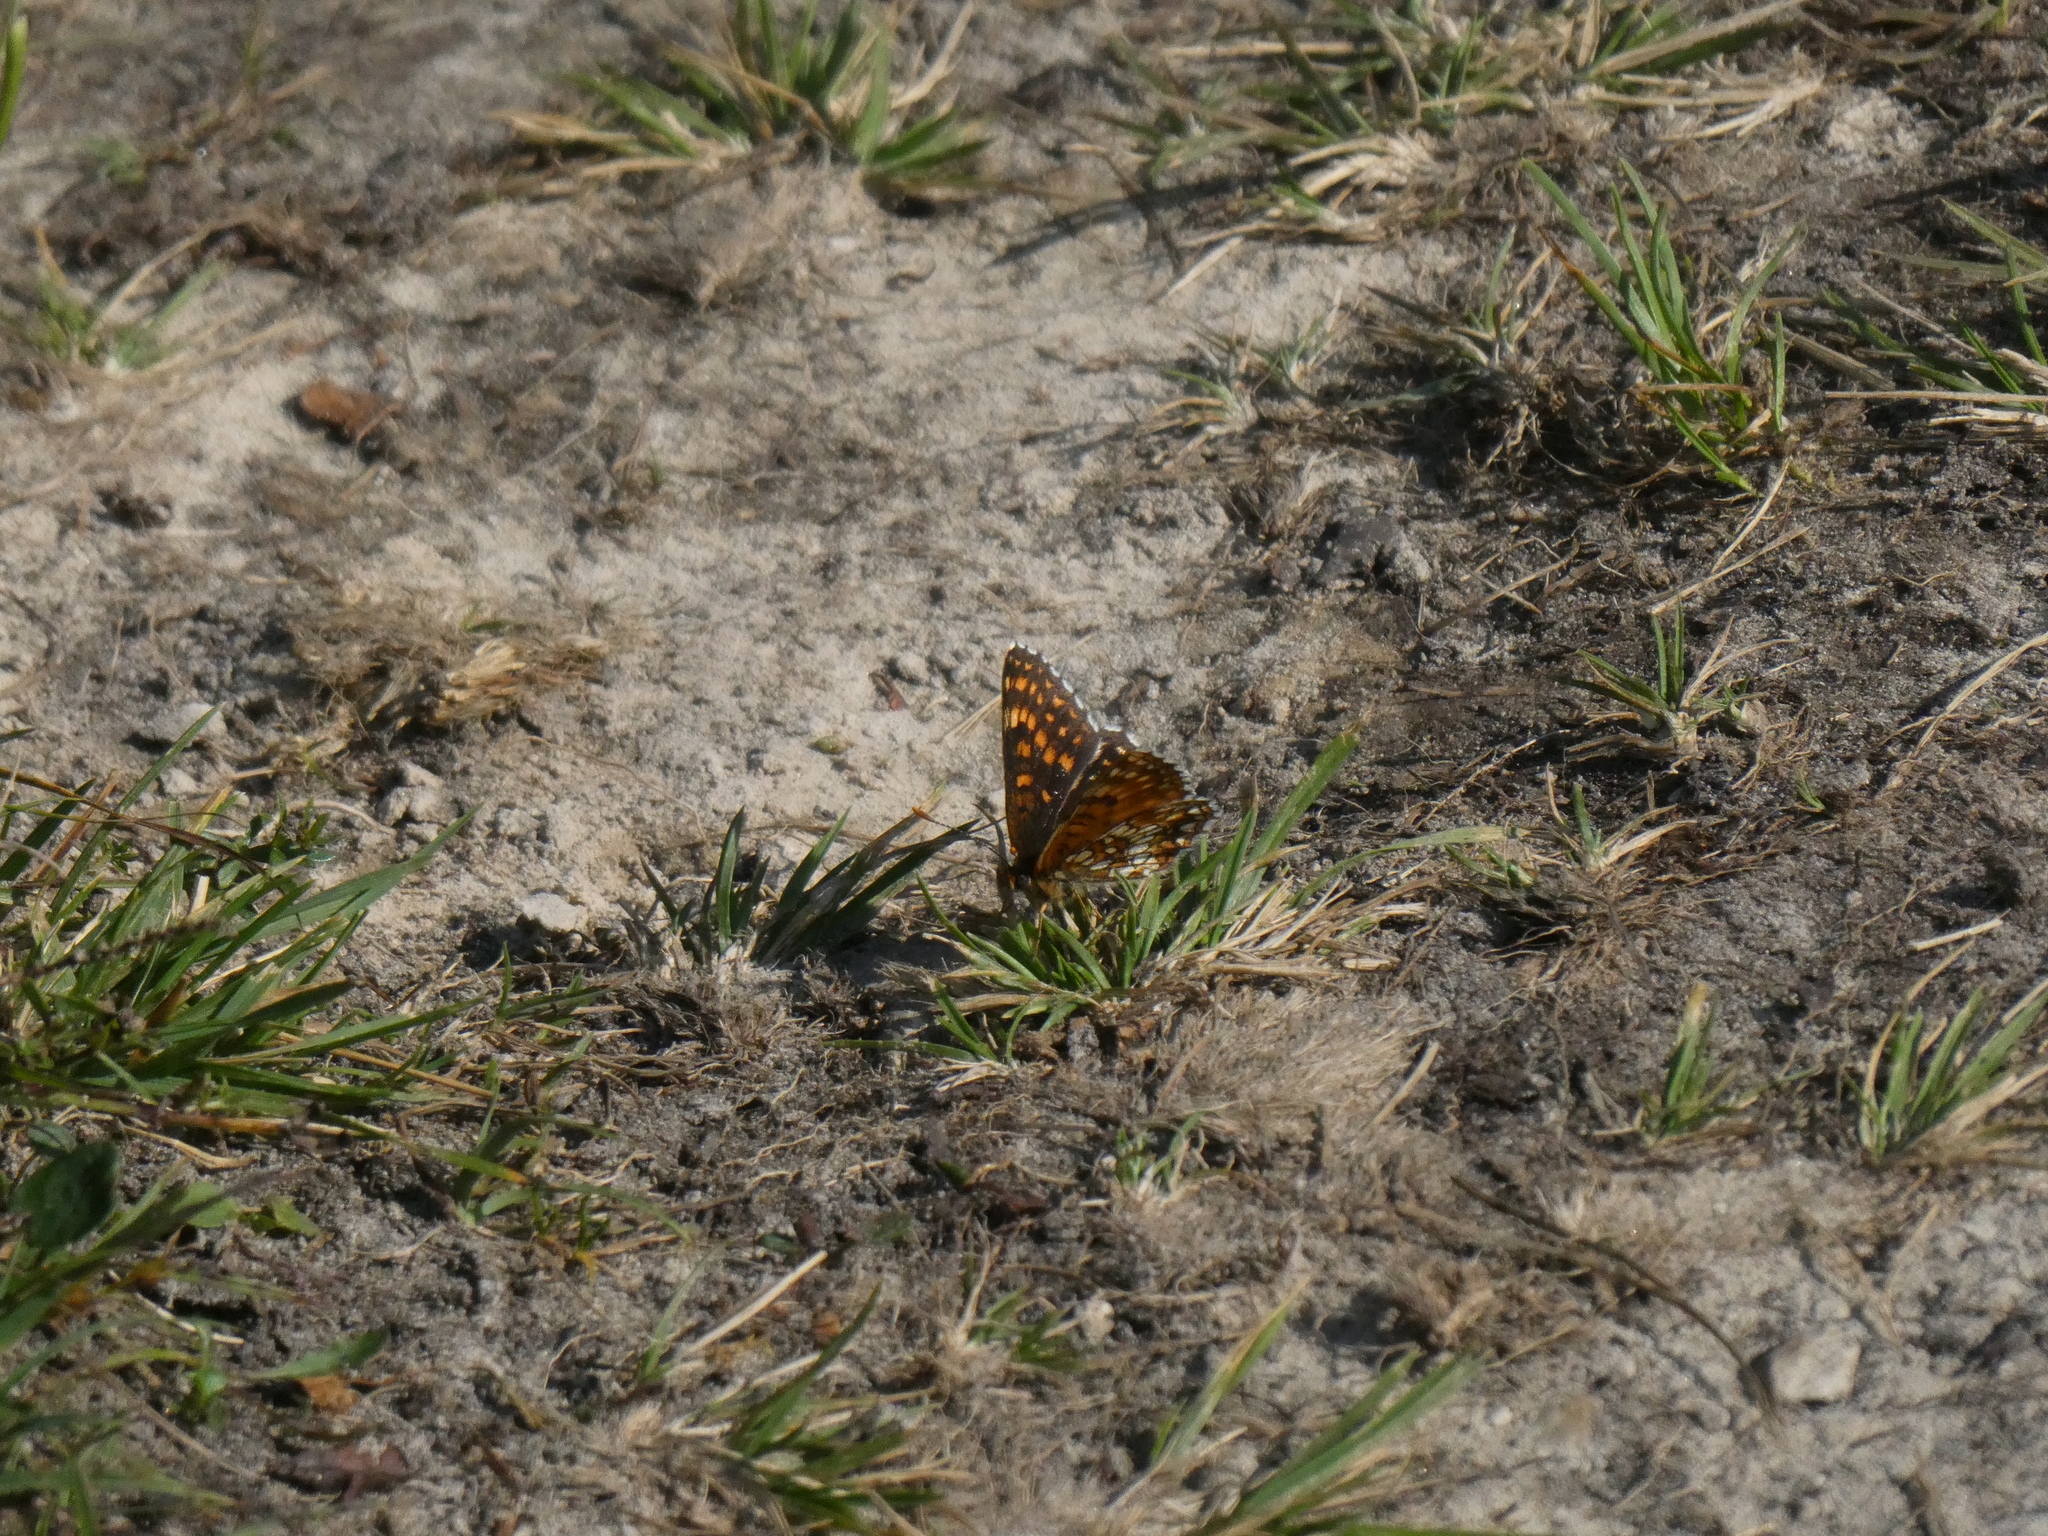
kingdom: Animalia
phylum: Arthropoda
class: Insecta
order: Lepidoptera
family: Nymphalidae
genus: Melitaea
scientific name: Melitaea diamina
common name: False heath fritillary
